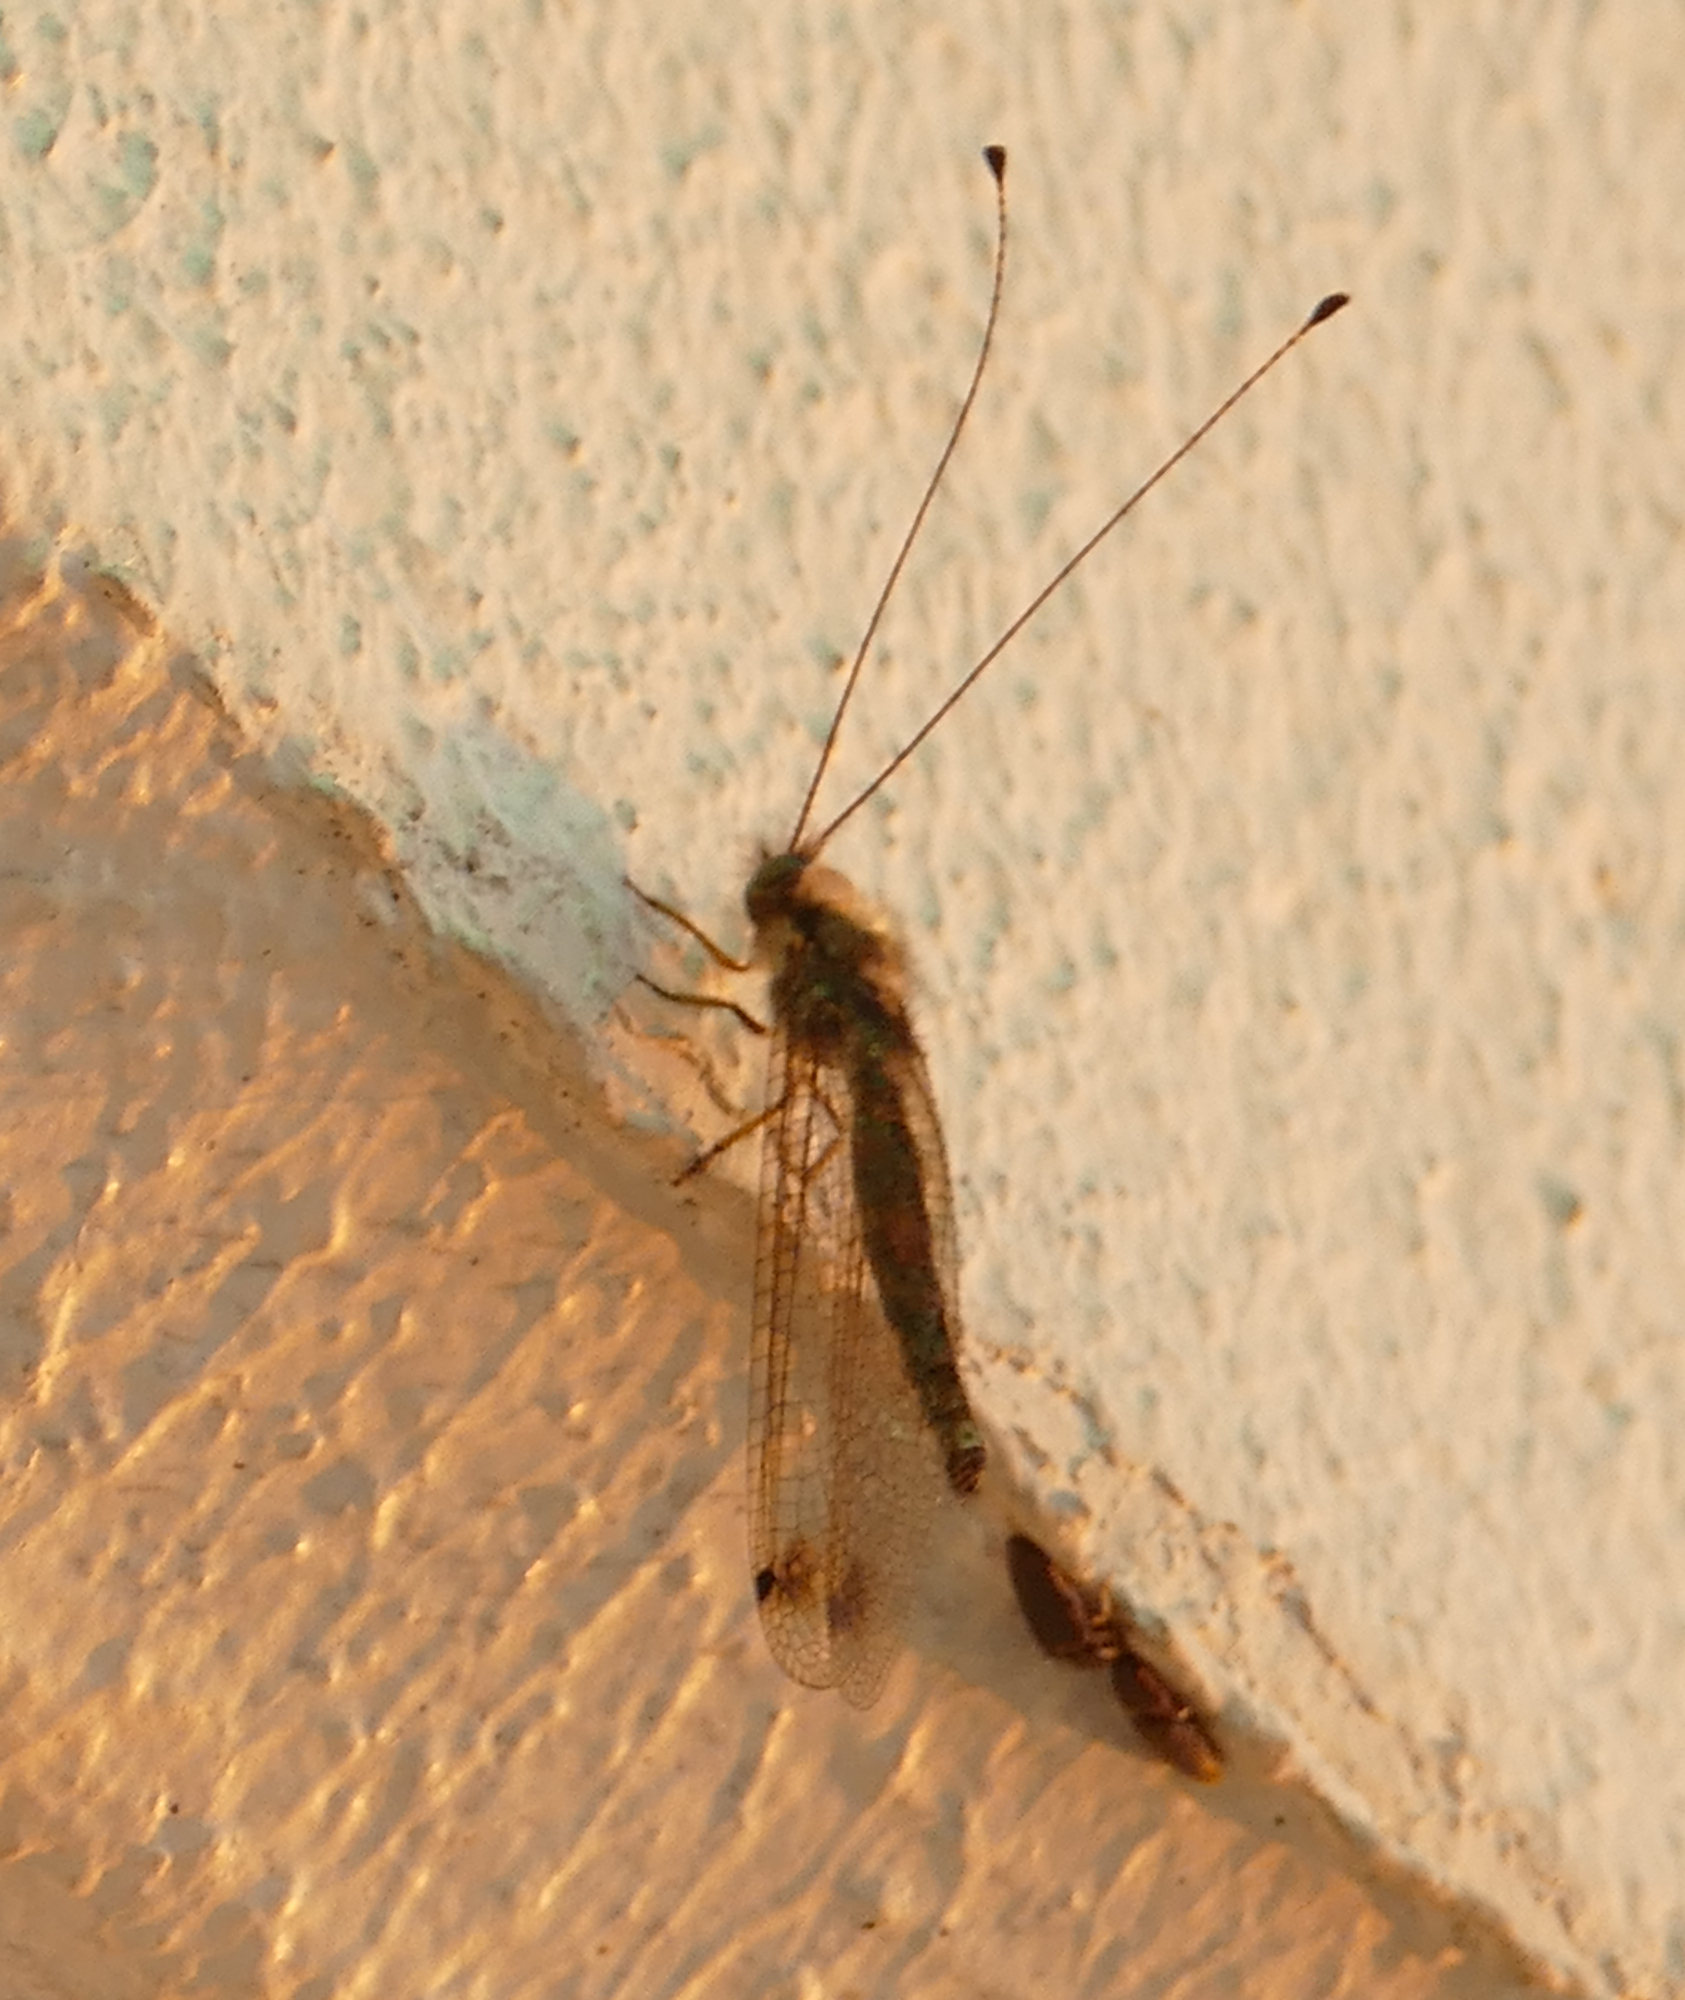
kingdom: Animalia
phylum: Arthropoda
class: Insecta
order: Neuroptera
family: Ascalaphidae
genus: Ululodes
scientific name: Ululodes macleayanus
